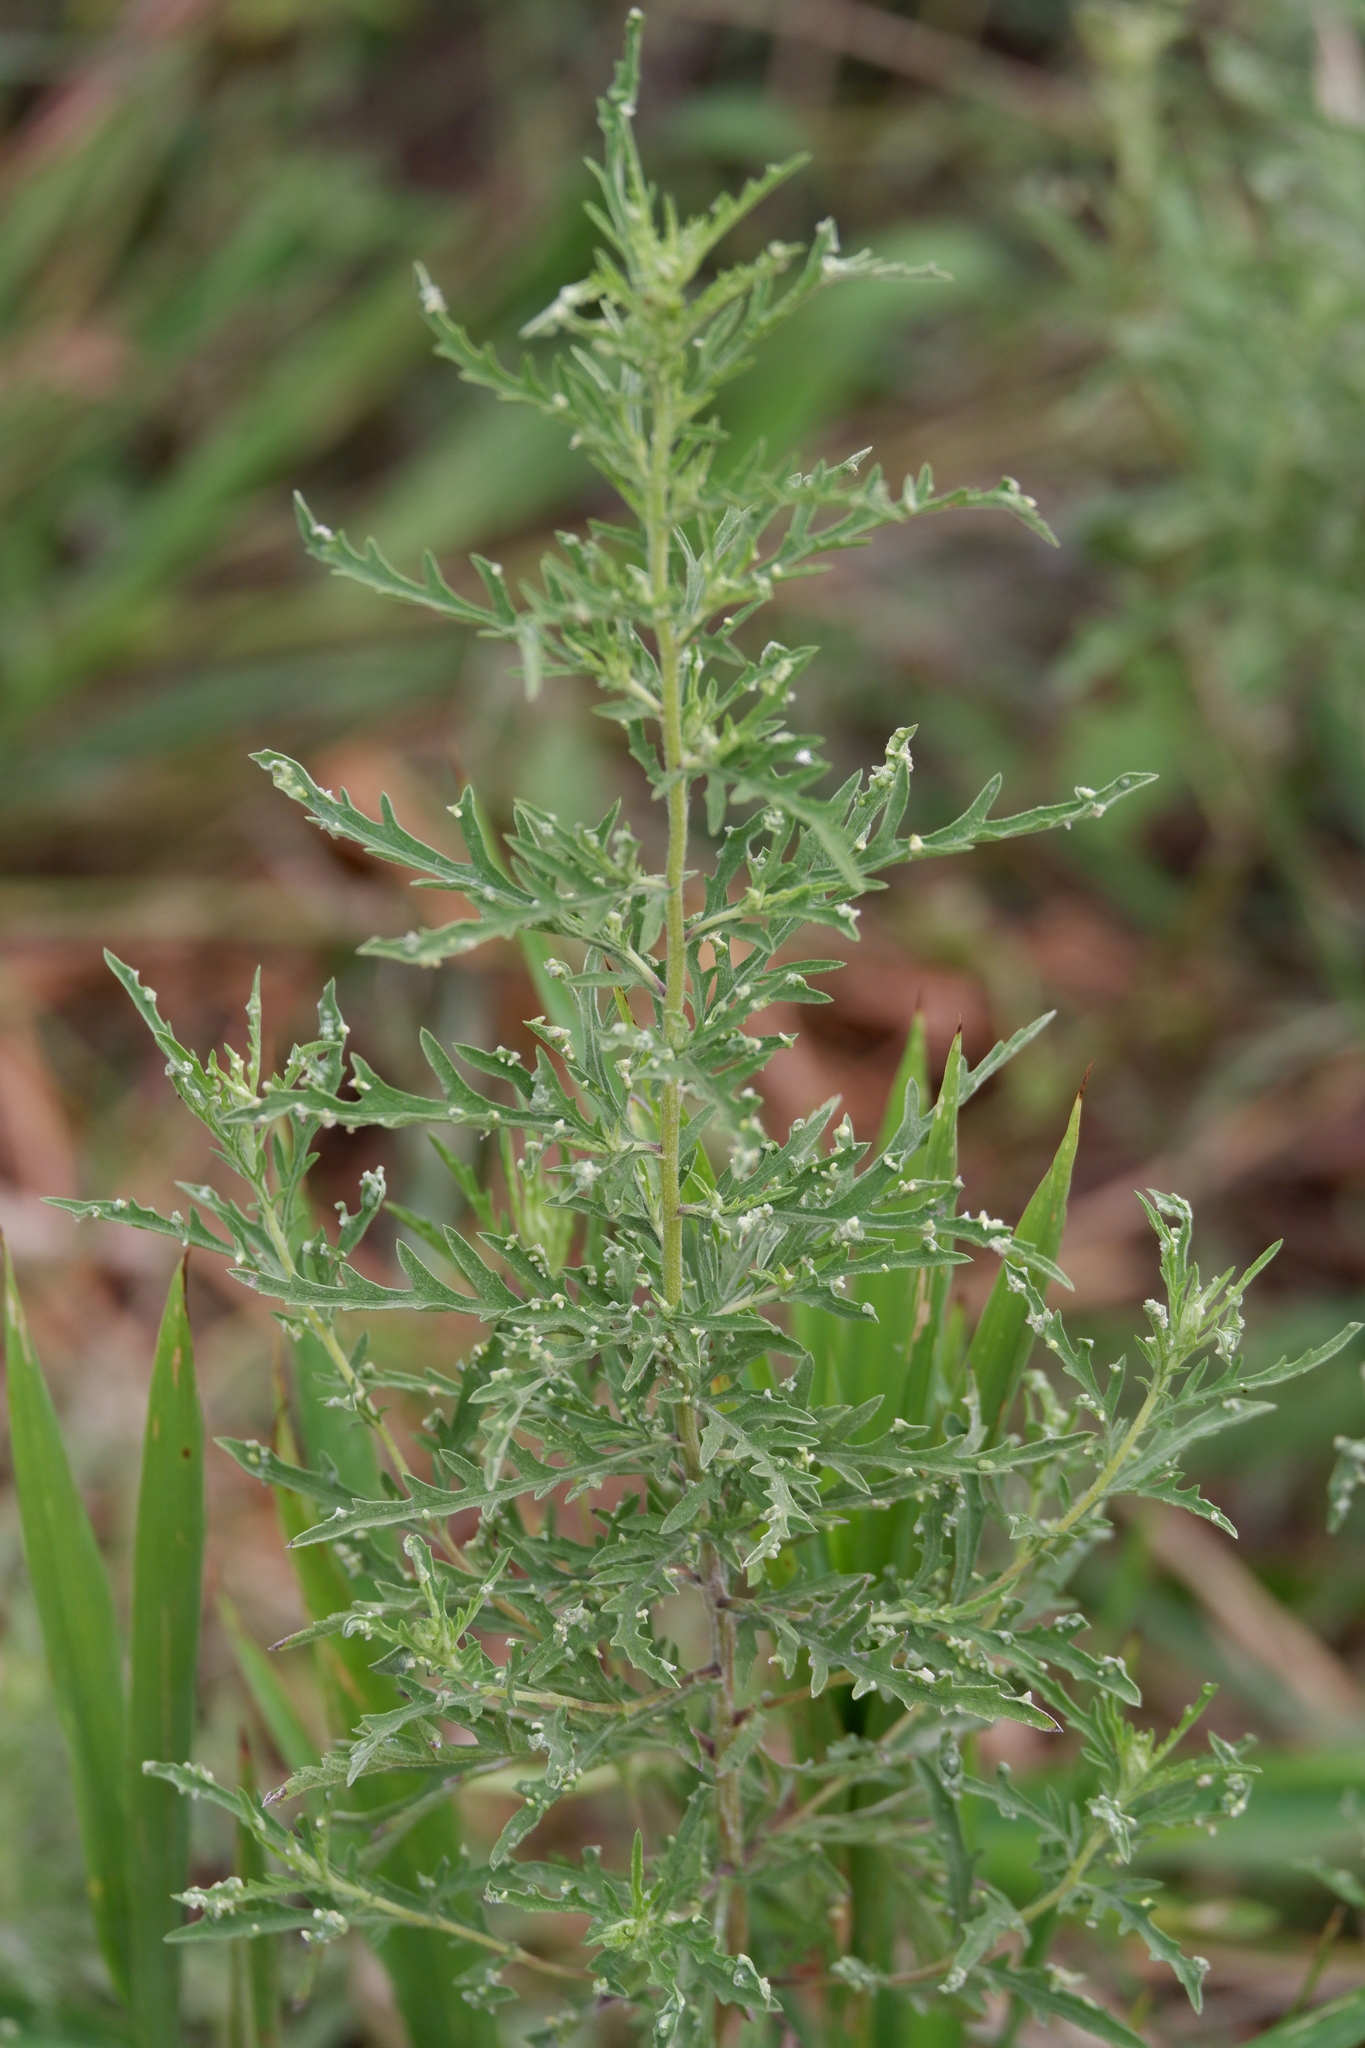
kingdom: Animalia
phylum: Arthropoda
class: Arachnida
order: Trombidiformes
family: Eriophyidae
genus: Aceria
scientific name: Aceria
